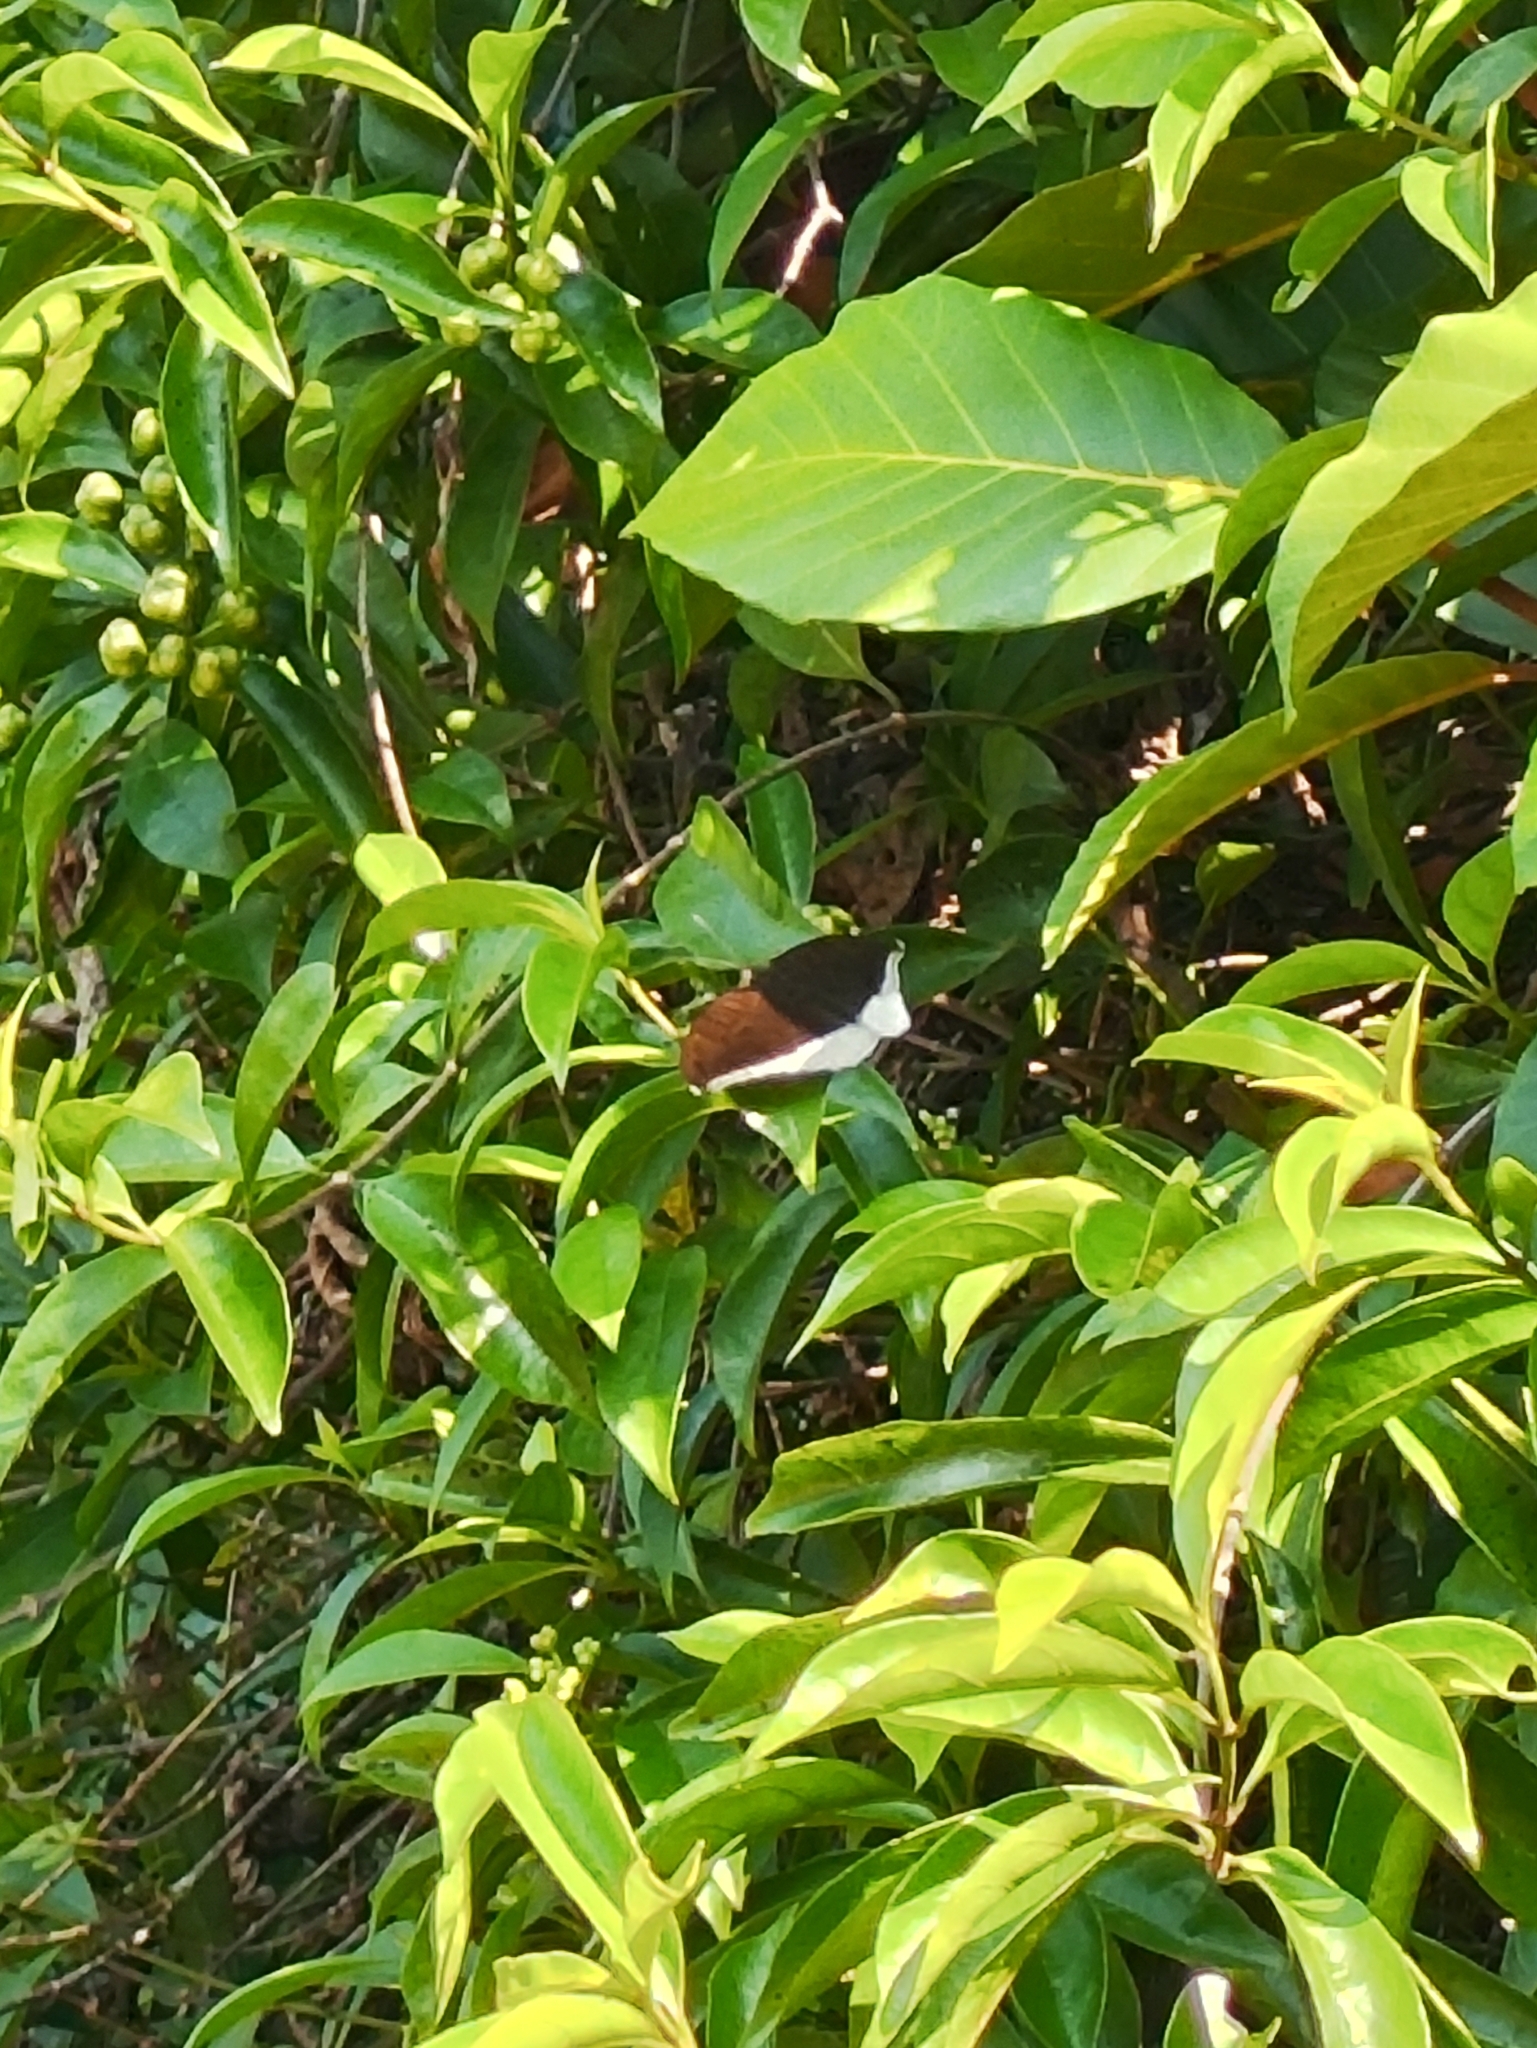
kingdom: Animalia
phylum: Arthropoda
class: Insecta
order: Lepidoptera
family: Nymphalidae
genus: Tanaecia
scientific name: Tanaecia lepidea
